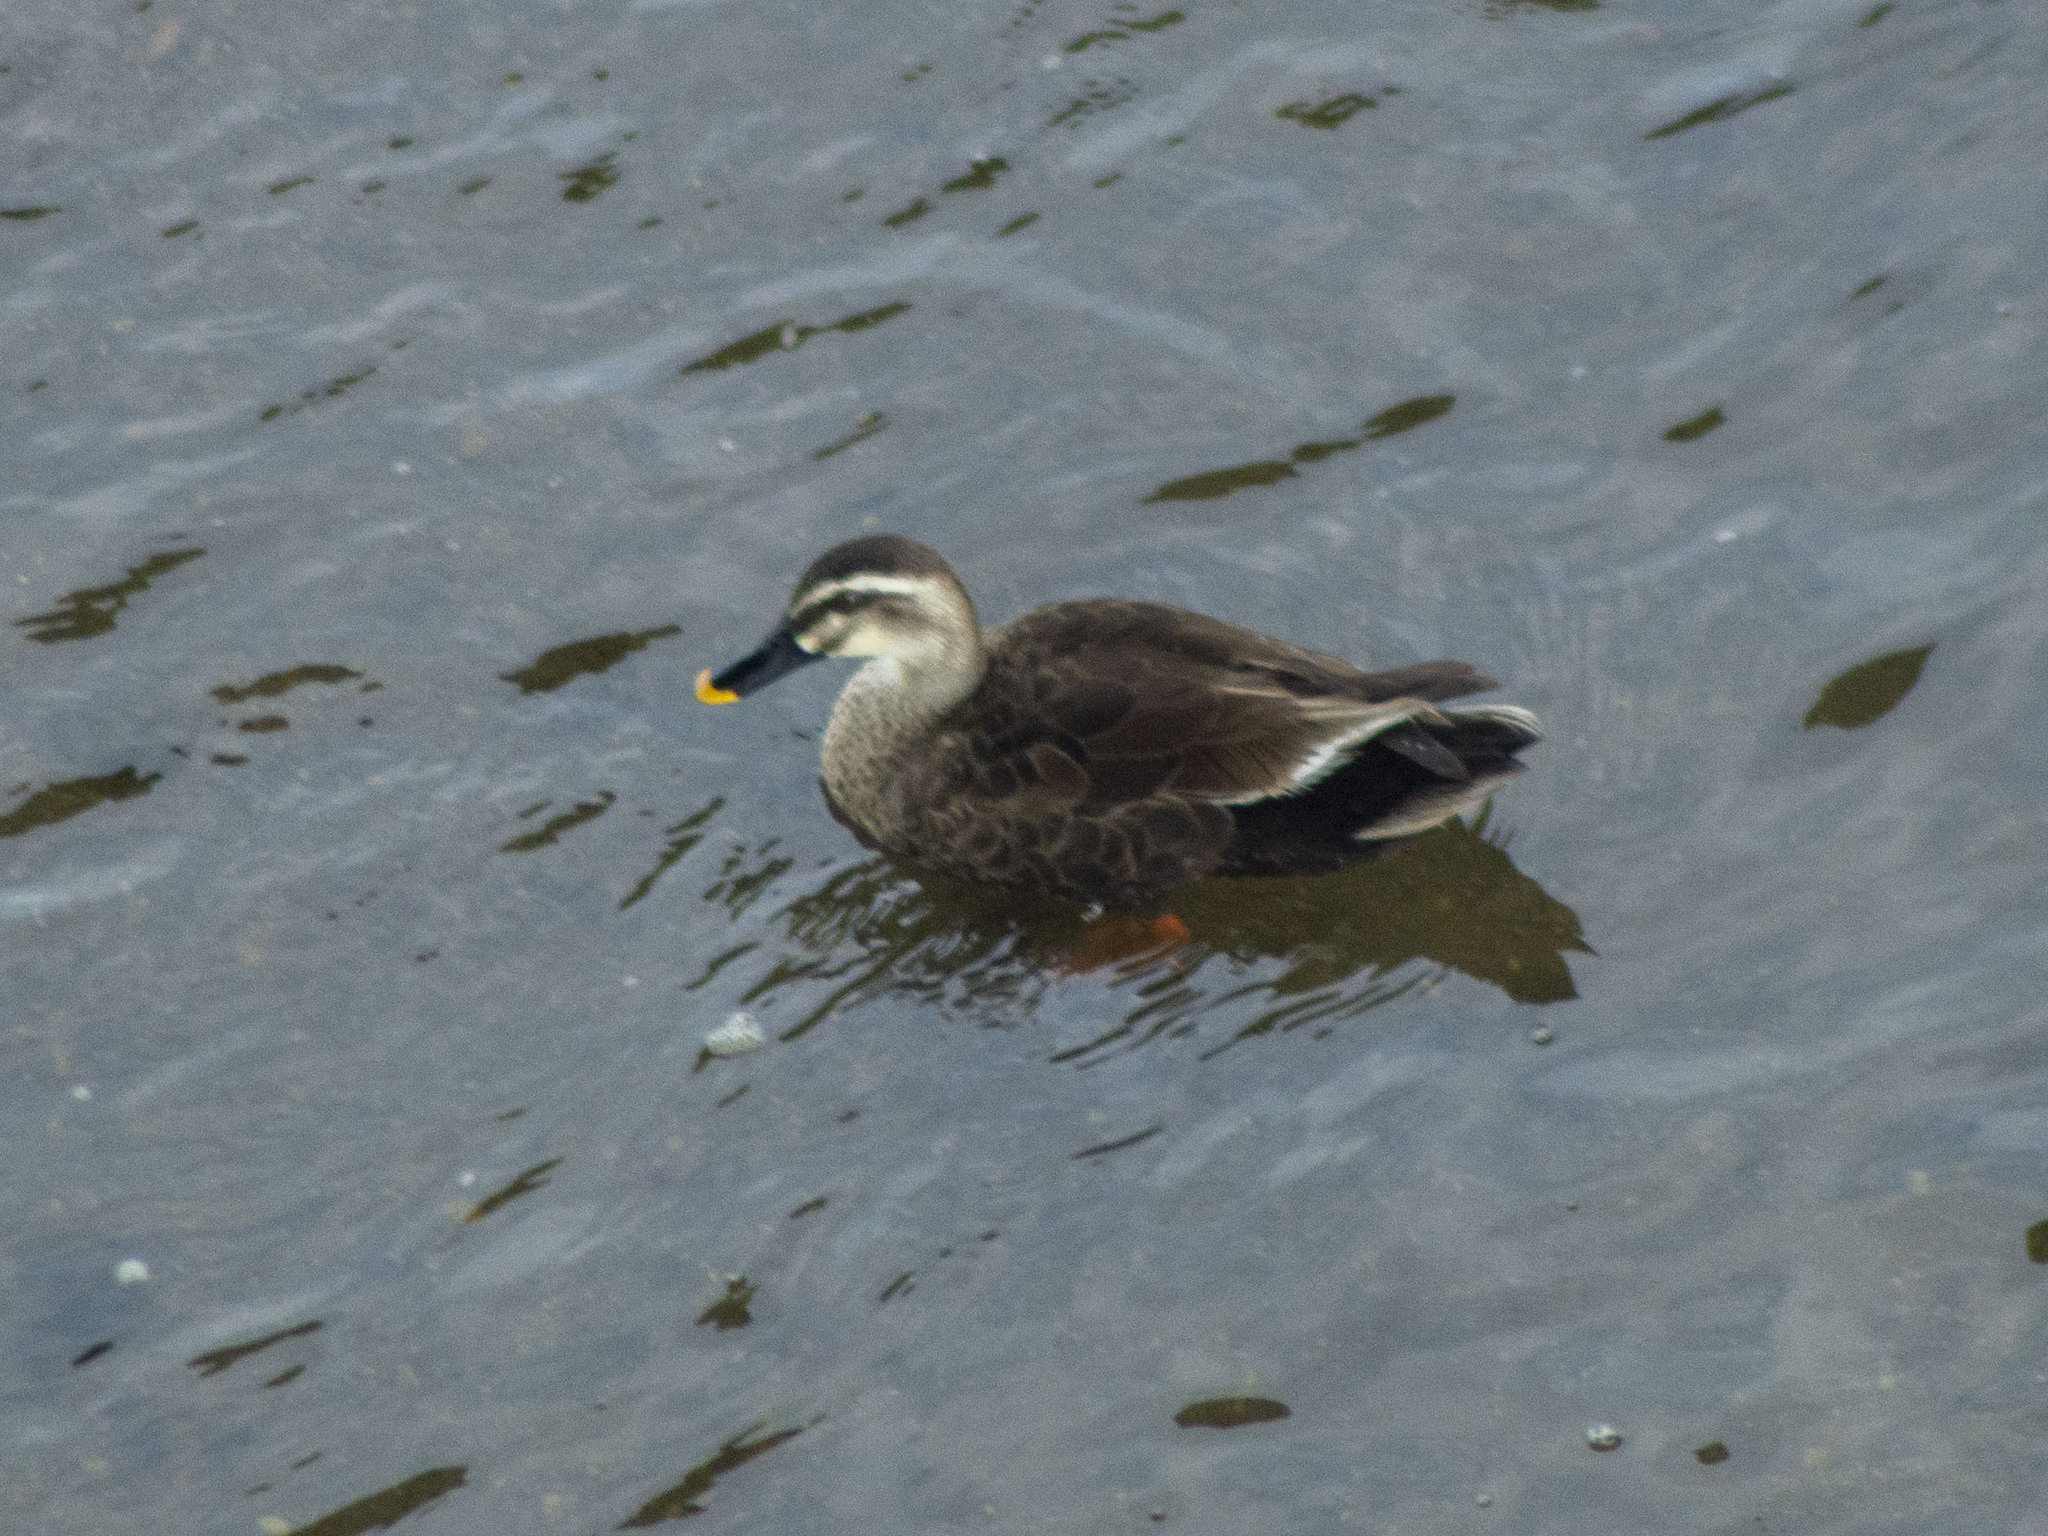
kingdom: Animalia
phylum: Chordata
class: Aves
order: Anseriformes
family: Anatidae
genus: Anas
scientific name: Anas zonorhyncha
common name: Eastern spot-billed duck
